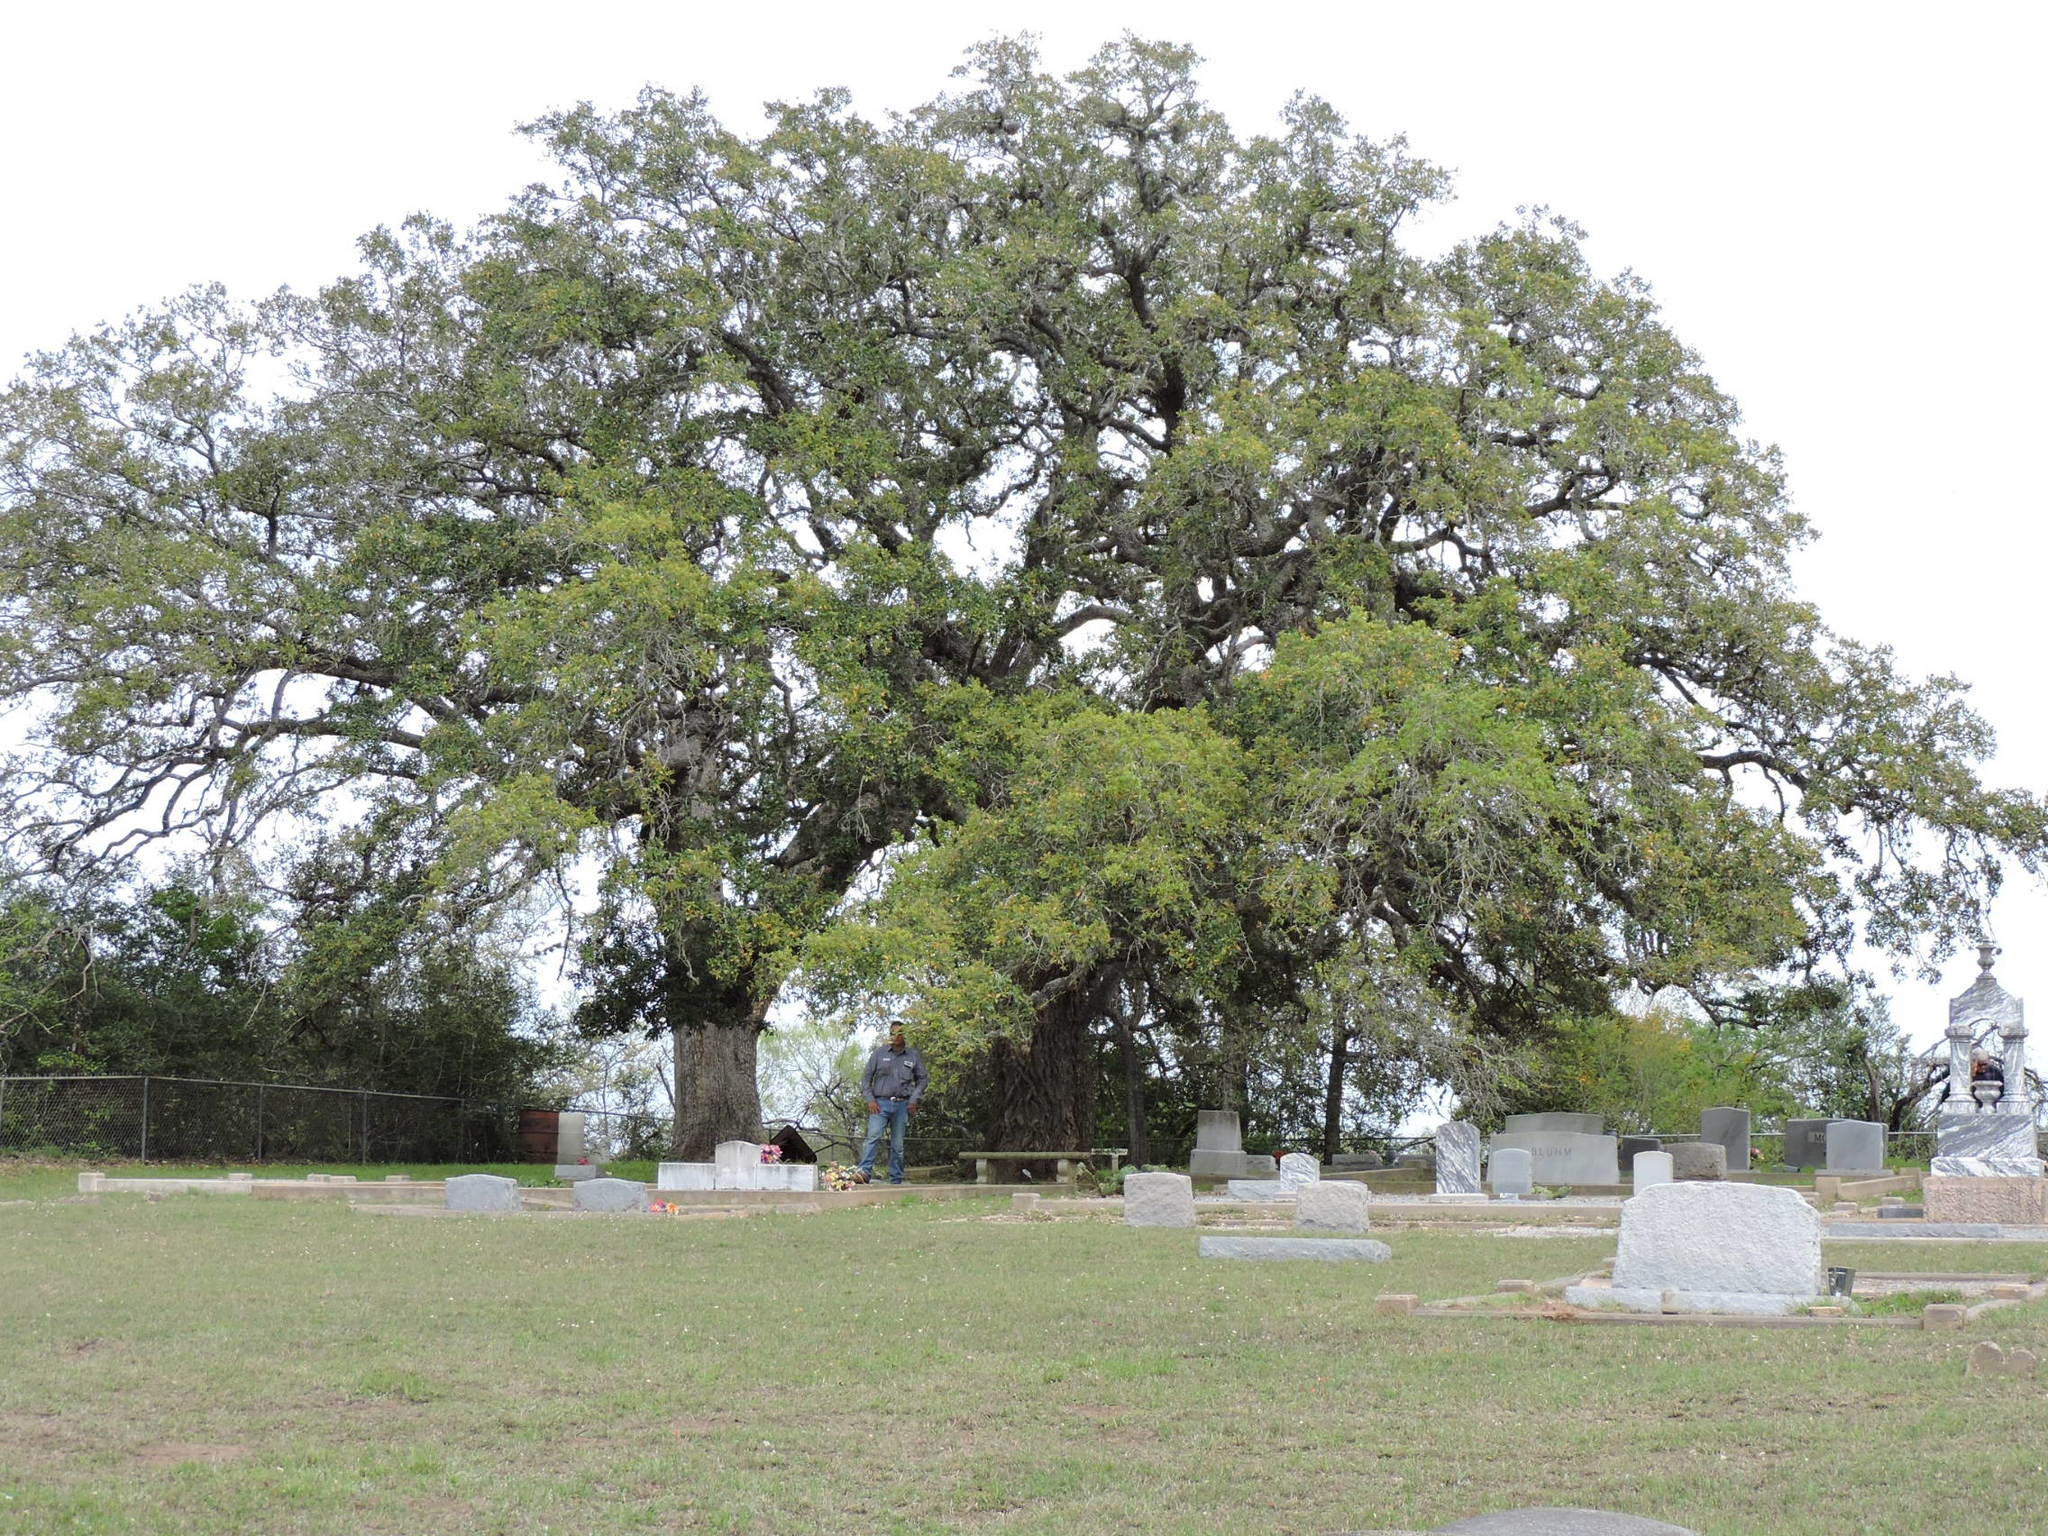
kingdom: Plantae
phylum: Tracheophyta
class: Magnoliopsida
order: Fagales
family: Fagaceae
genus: Quercus
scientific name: Quercus virginiana
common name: Southern live oak
